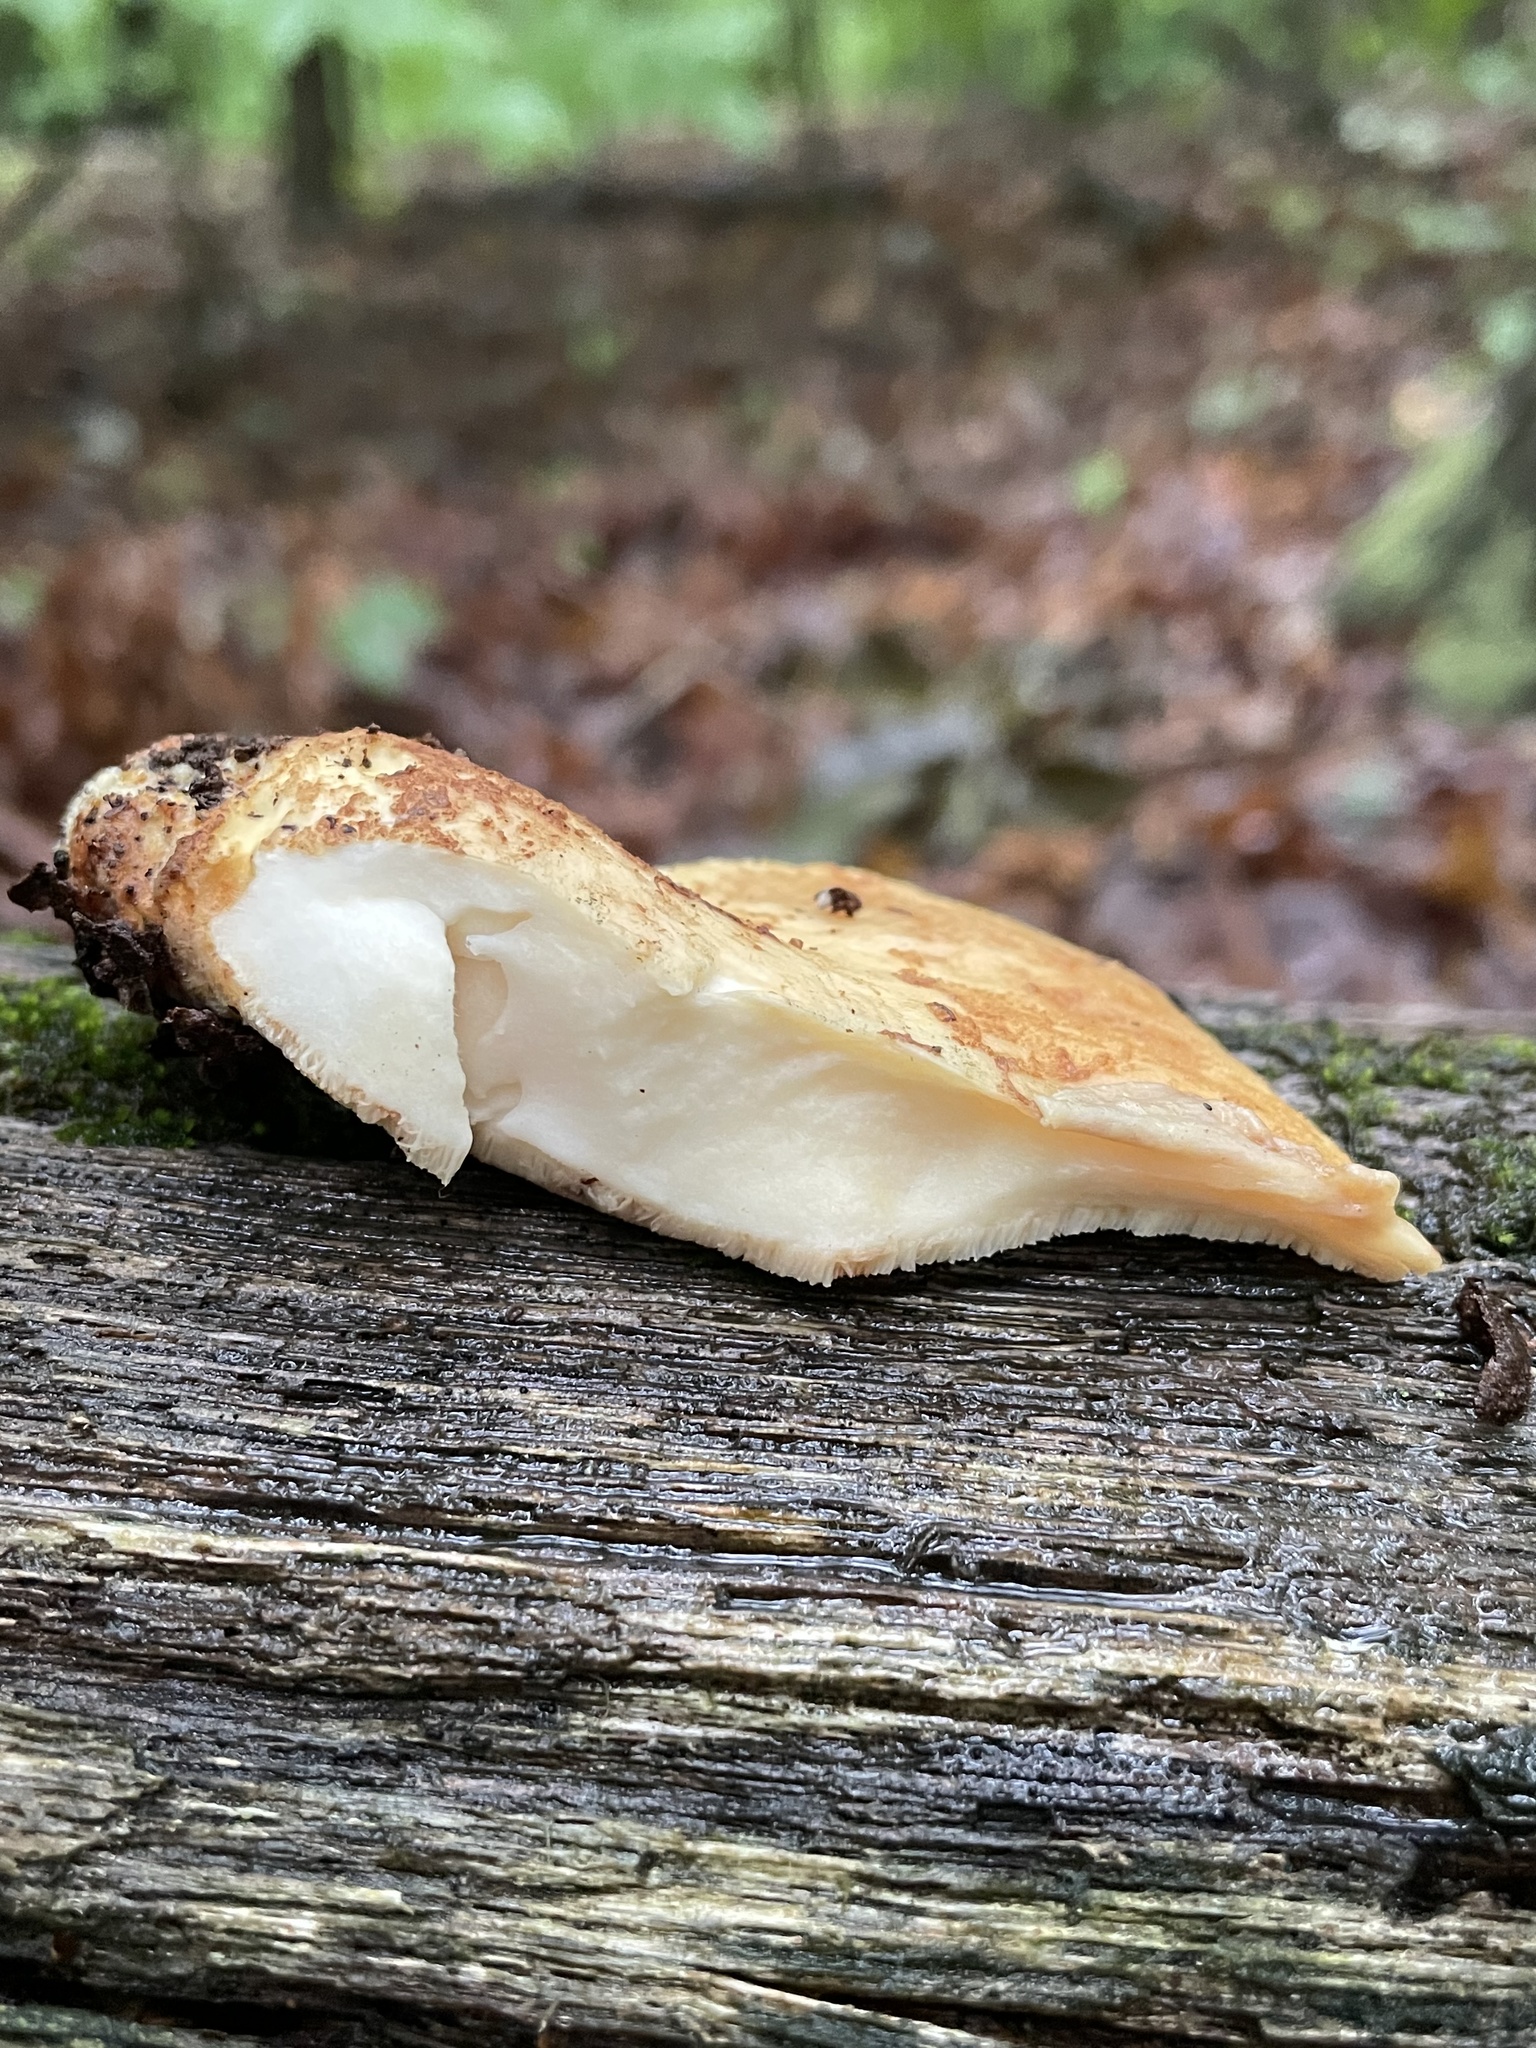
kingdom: Fungi
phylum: Basidiomycota
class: Agaricomycetes
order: Polyporales
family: Fomitopsidaceae
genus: Fomitopsis
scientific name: Fomitopsis
